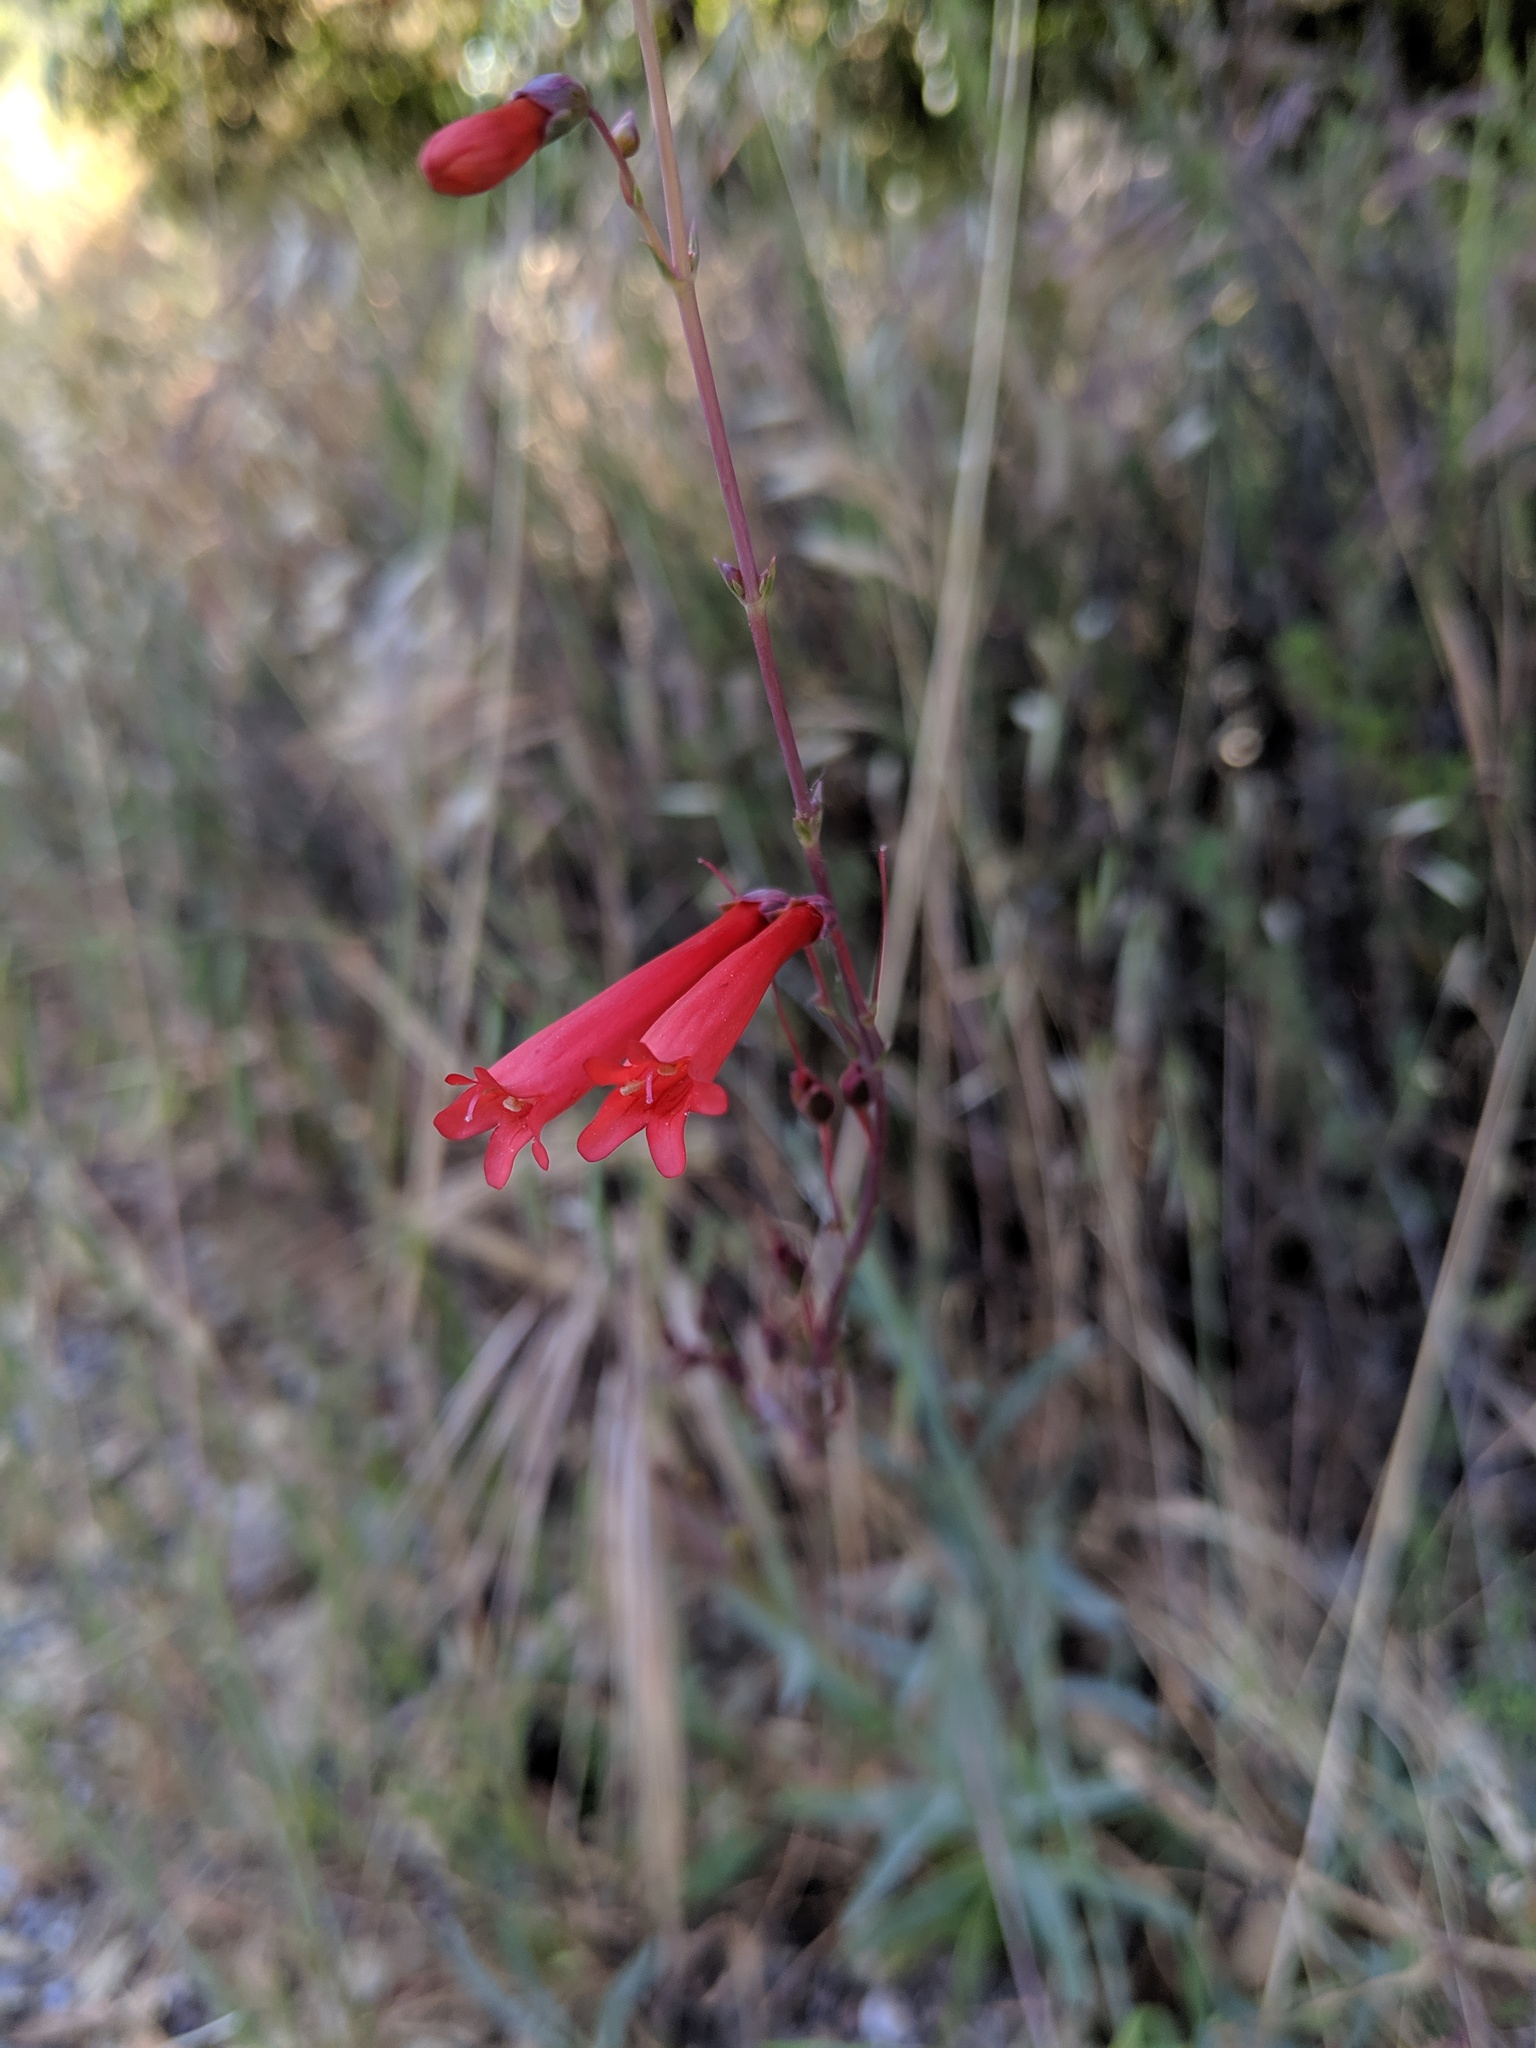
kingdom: Plantae
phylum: Tracheophyta
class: Magnoliopsida
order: Lamiales
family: Plantaginaceae
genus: Penstemon
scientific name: Penstemon centranthifolius
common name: Scarlet bugler
